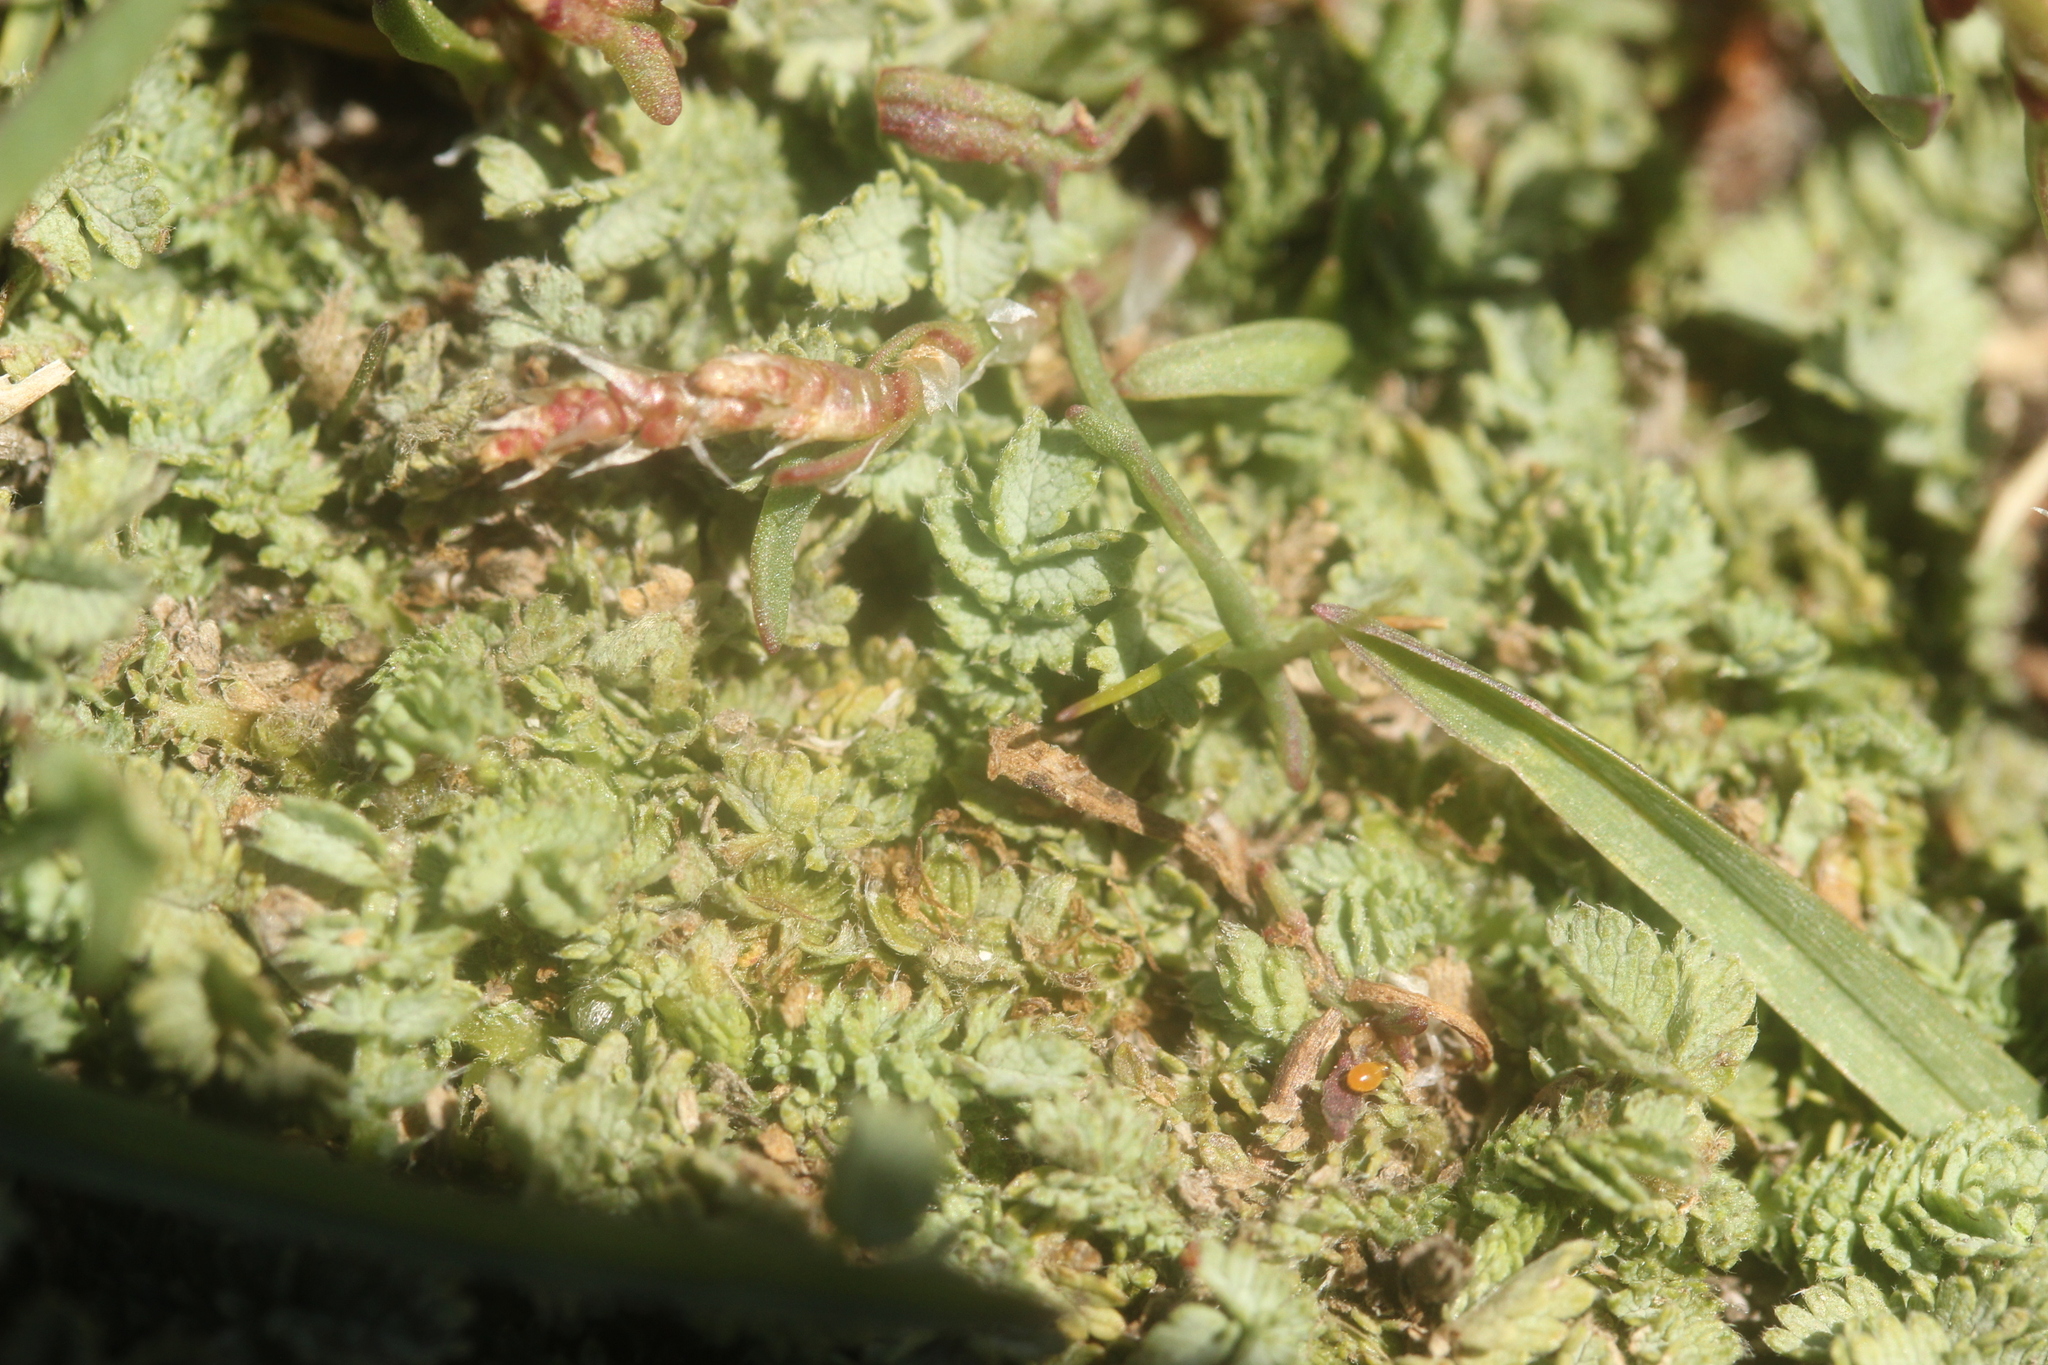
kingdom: Plantae
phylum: Tracheophyta
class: Magnoliopsida
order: Rosales
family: Rosaceae
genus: Acaena
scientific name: Acaena buchananii
